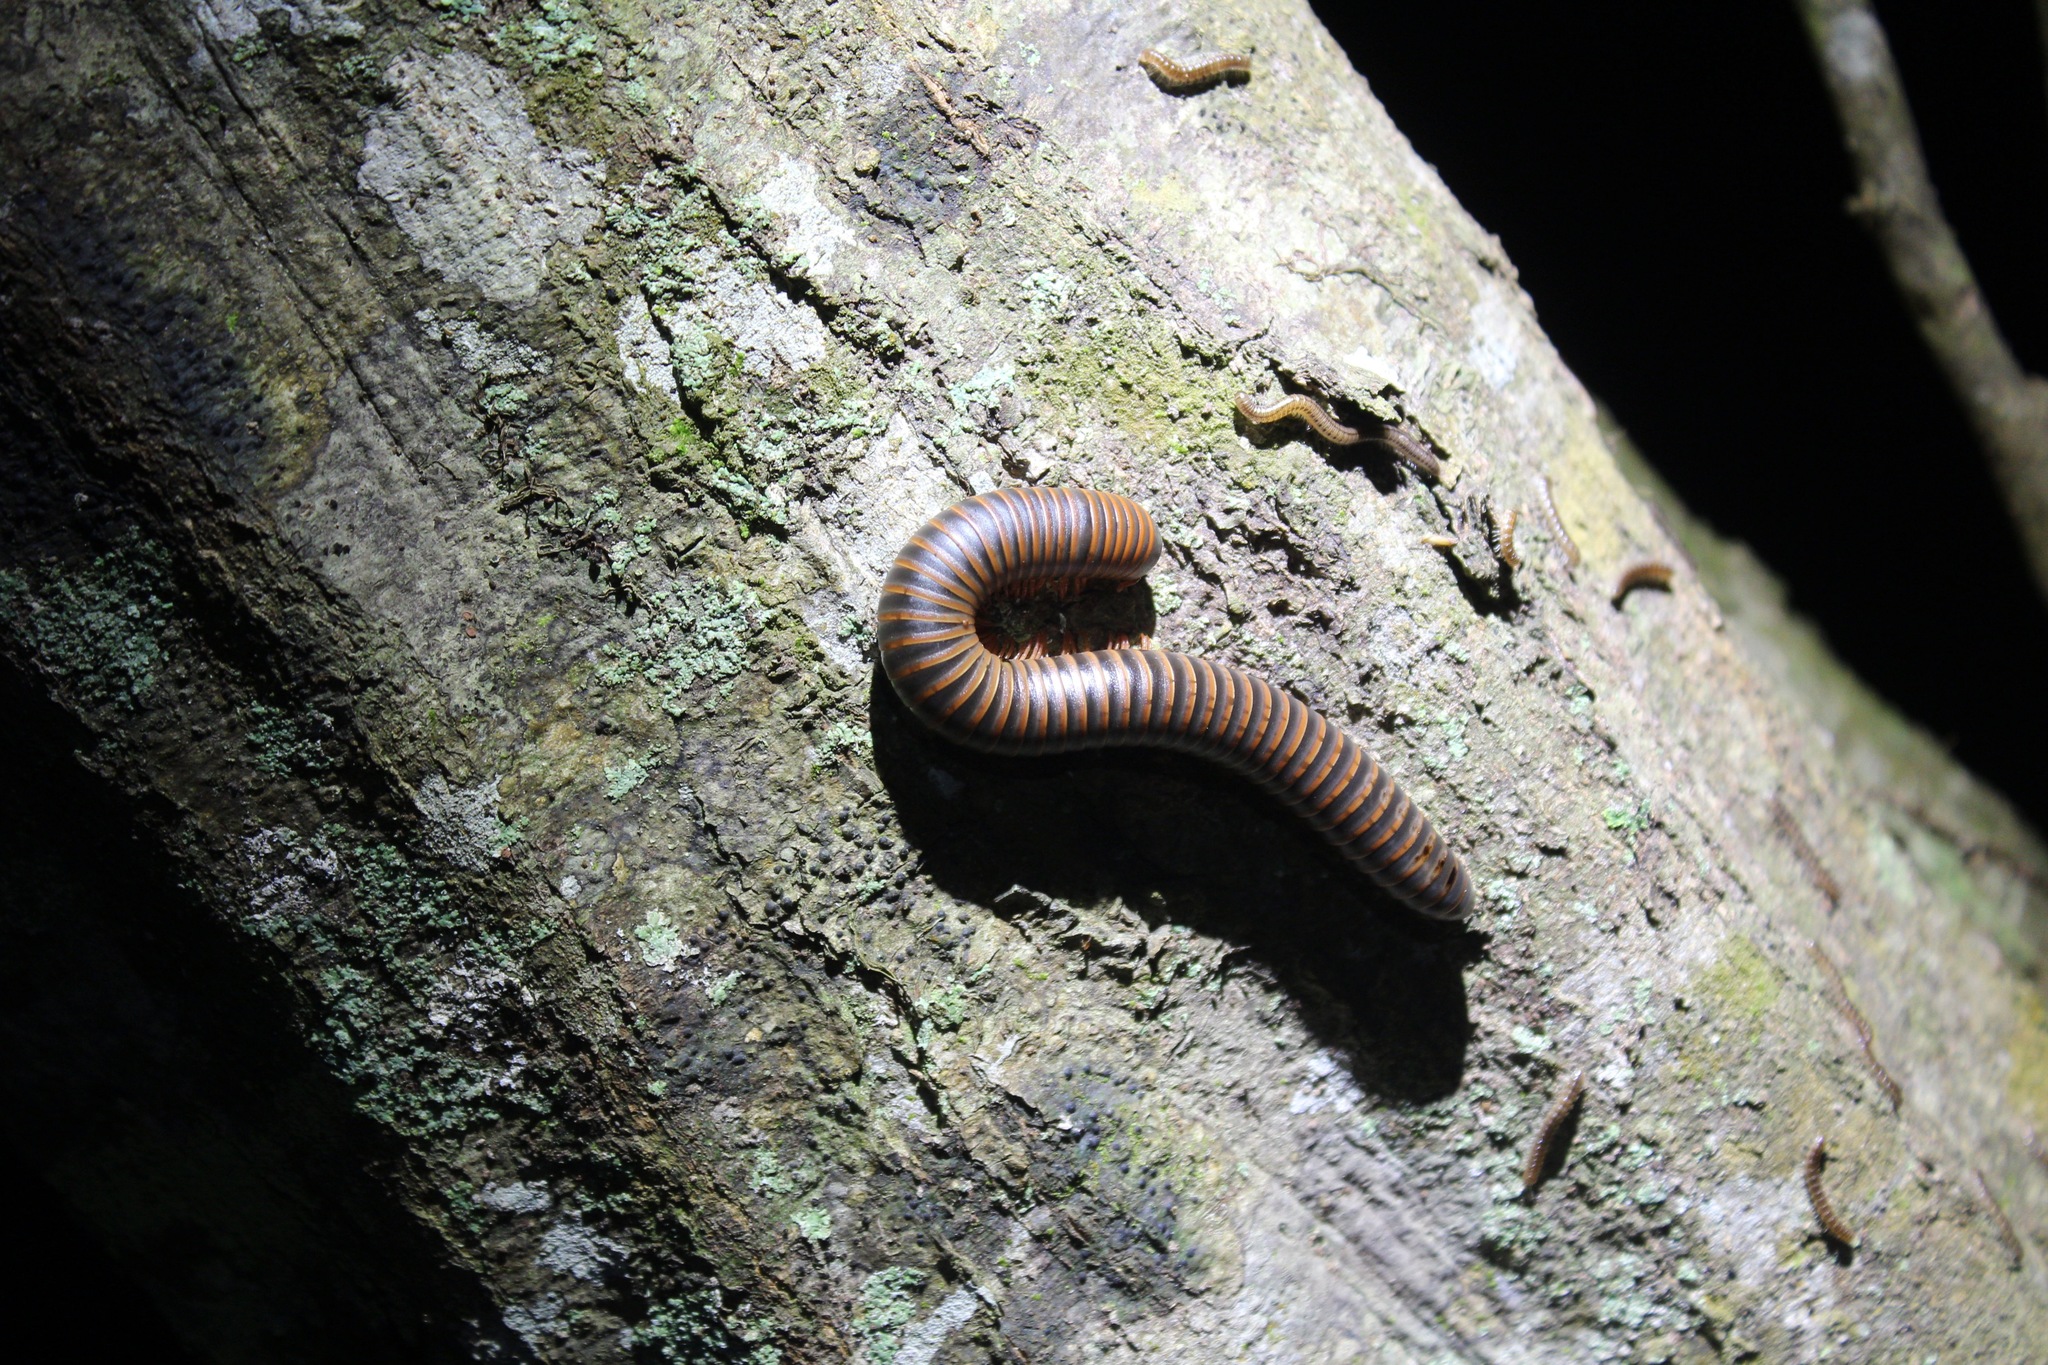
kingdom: Animalia
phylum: Arthropoda
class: Diplopoda
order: Spirobolida
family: Spirobolidae
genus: Narceus
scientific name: Narceus
